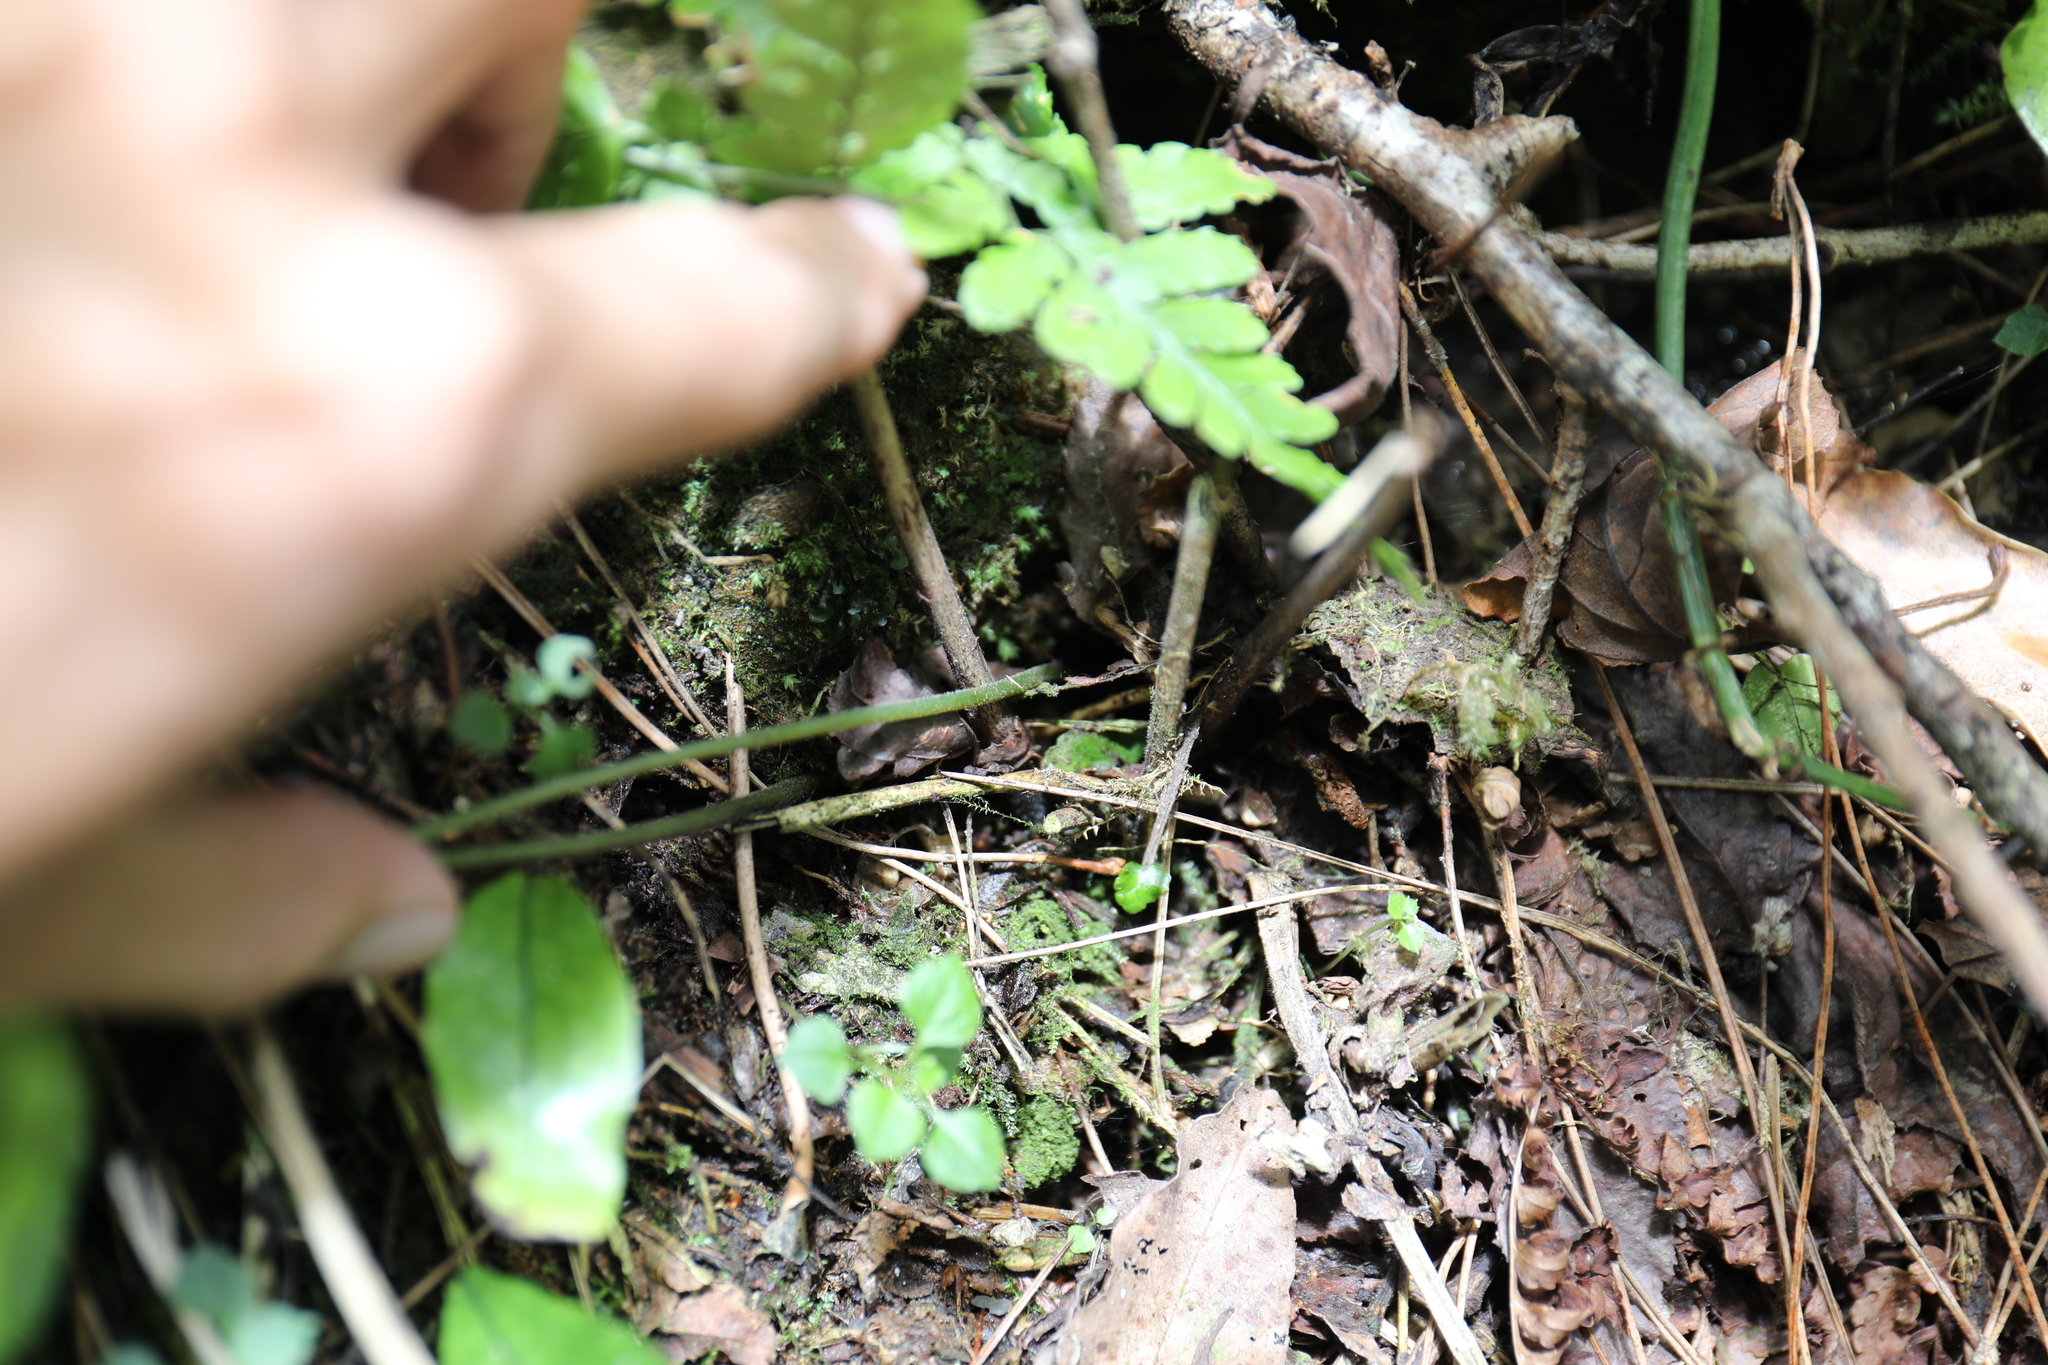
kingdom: Plantae
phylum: Tracheophyta
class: Polypodiopsida
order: Polypodiales
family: Pteridaceae
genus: Coniogramme
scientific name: Coniogramme intermedia
